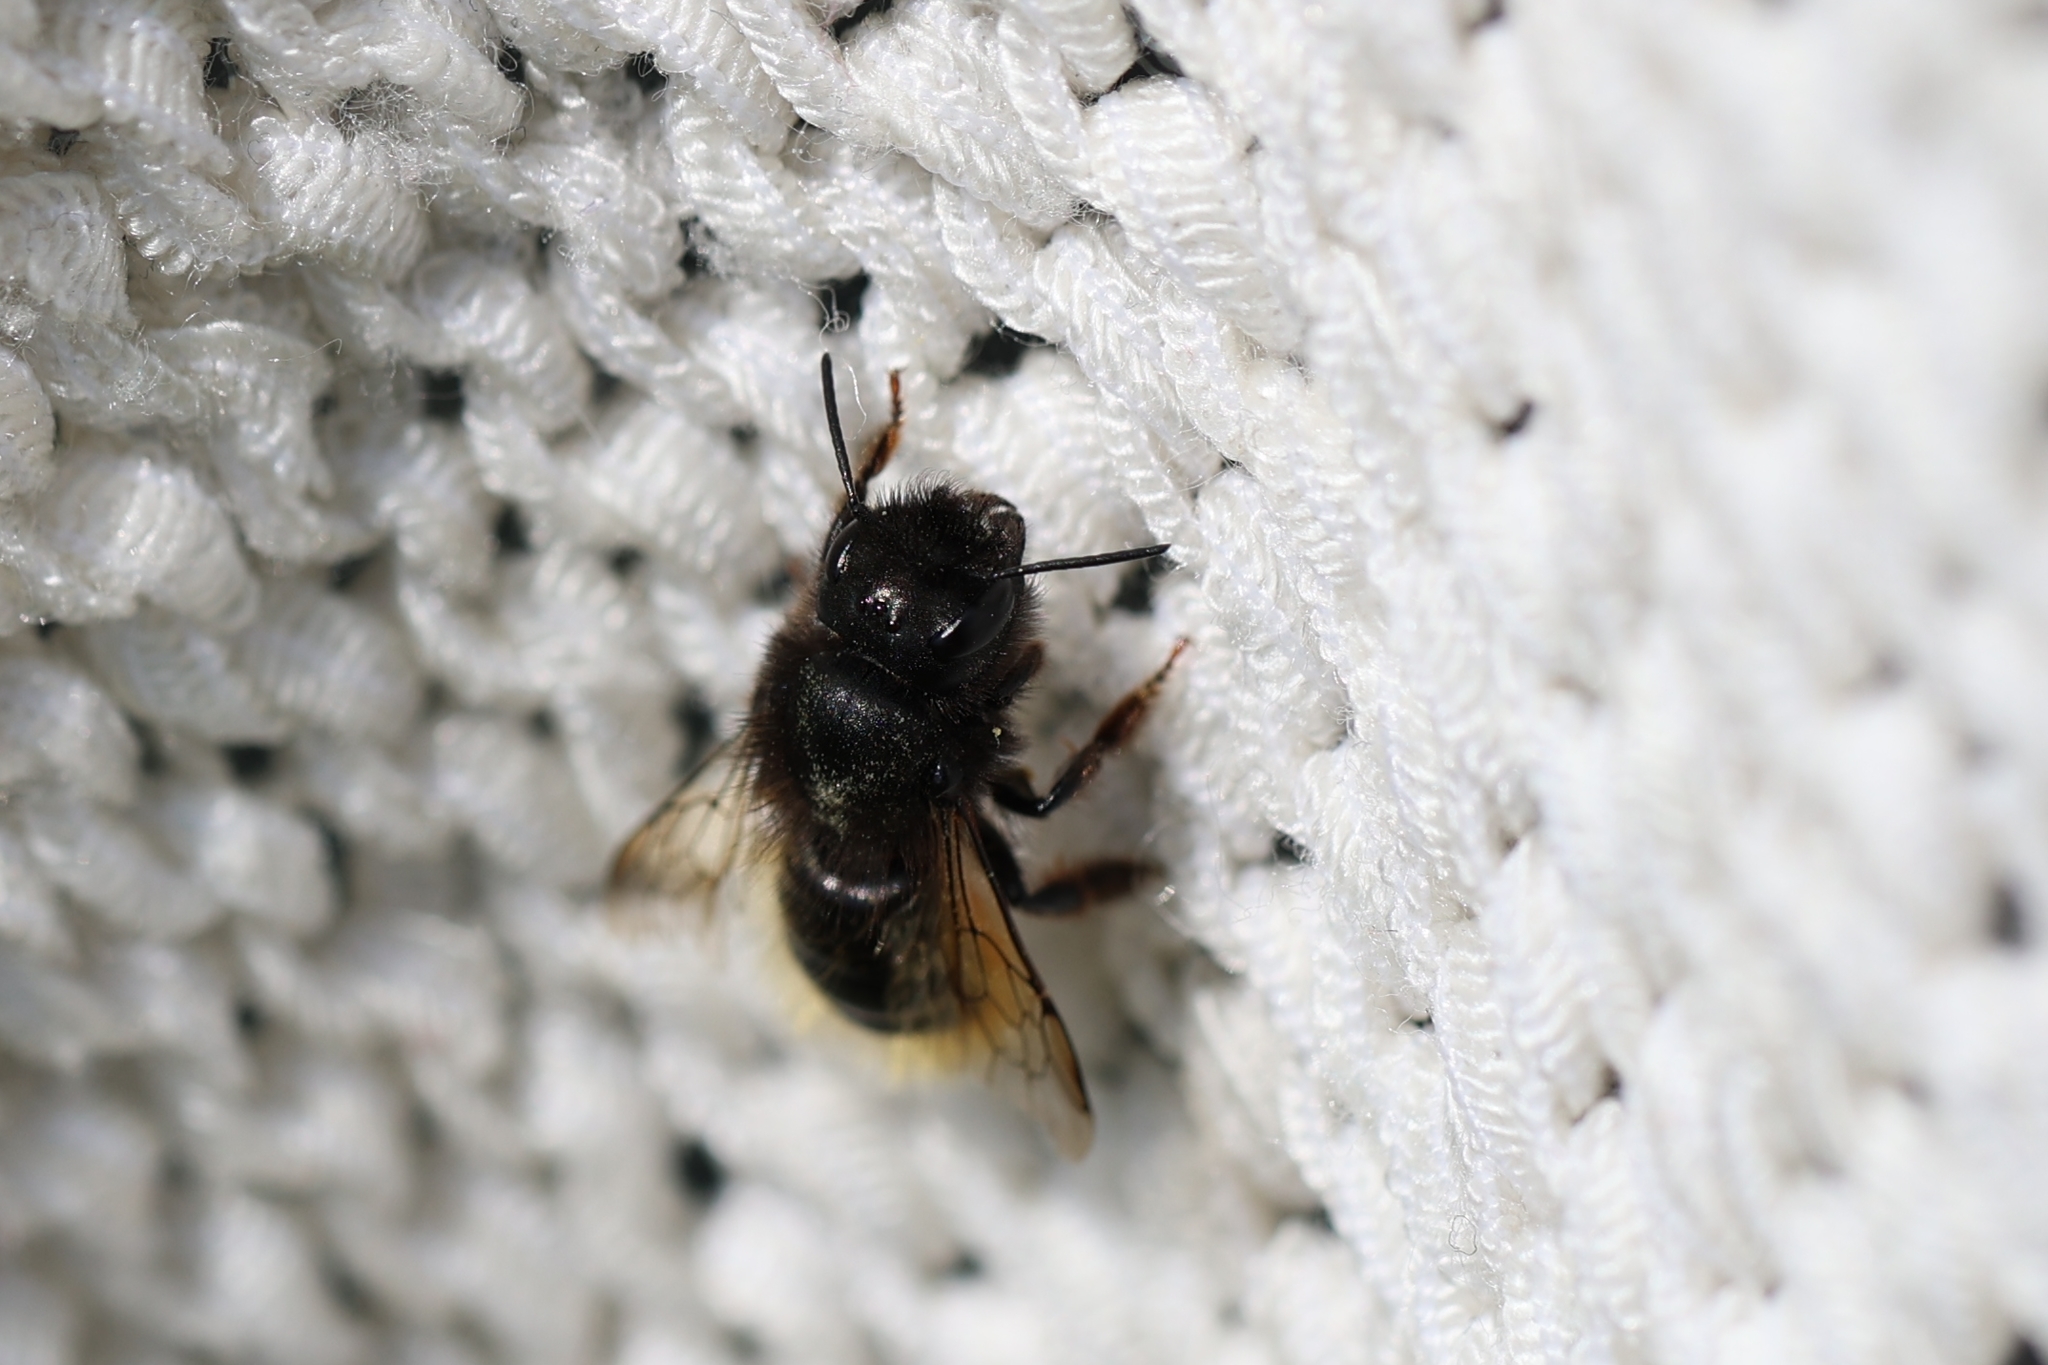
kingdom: Animalia
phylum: Arthropoda
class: Insecta
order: Hymenoptera
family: Megachilidae
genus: Osmia
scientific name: Osmia cornuta
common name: Mason bee
